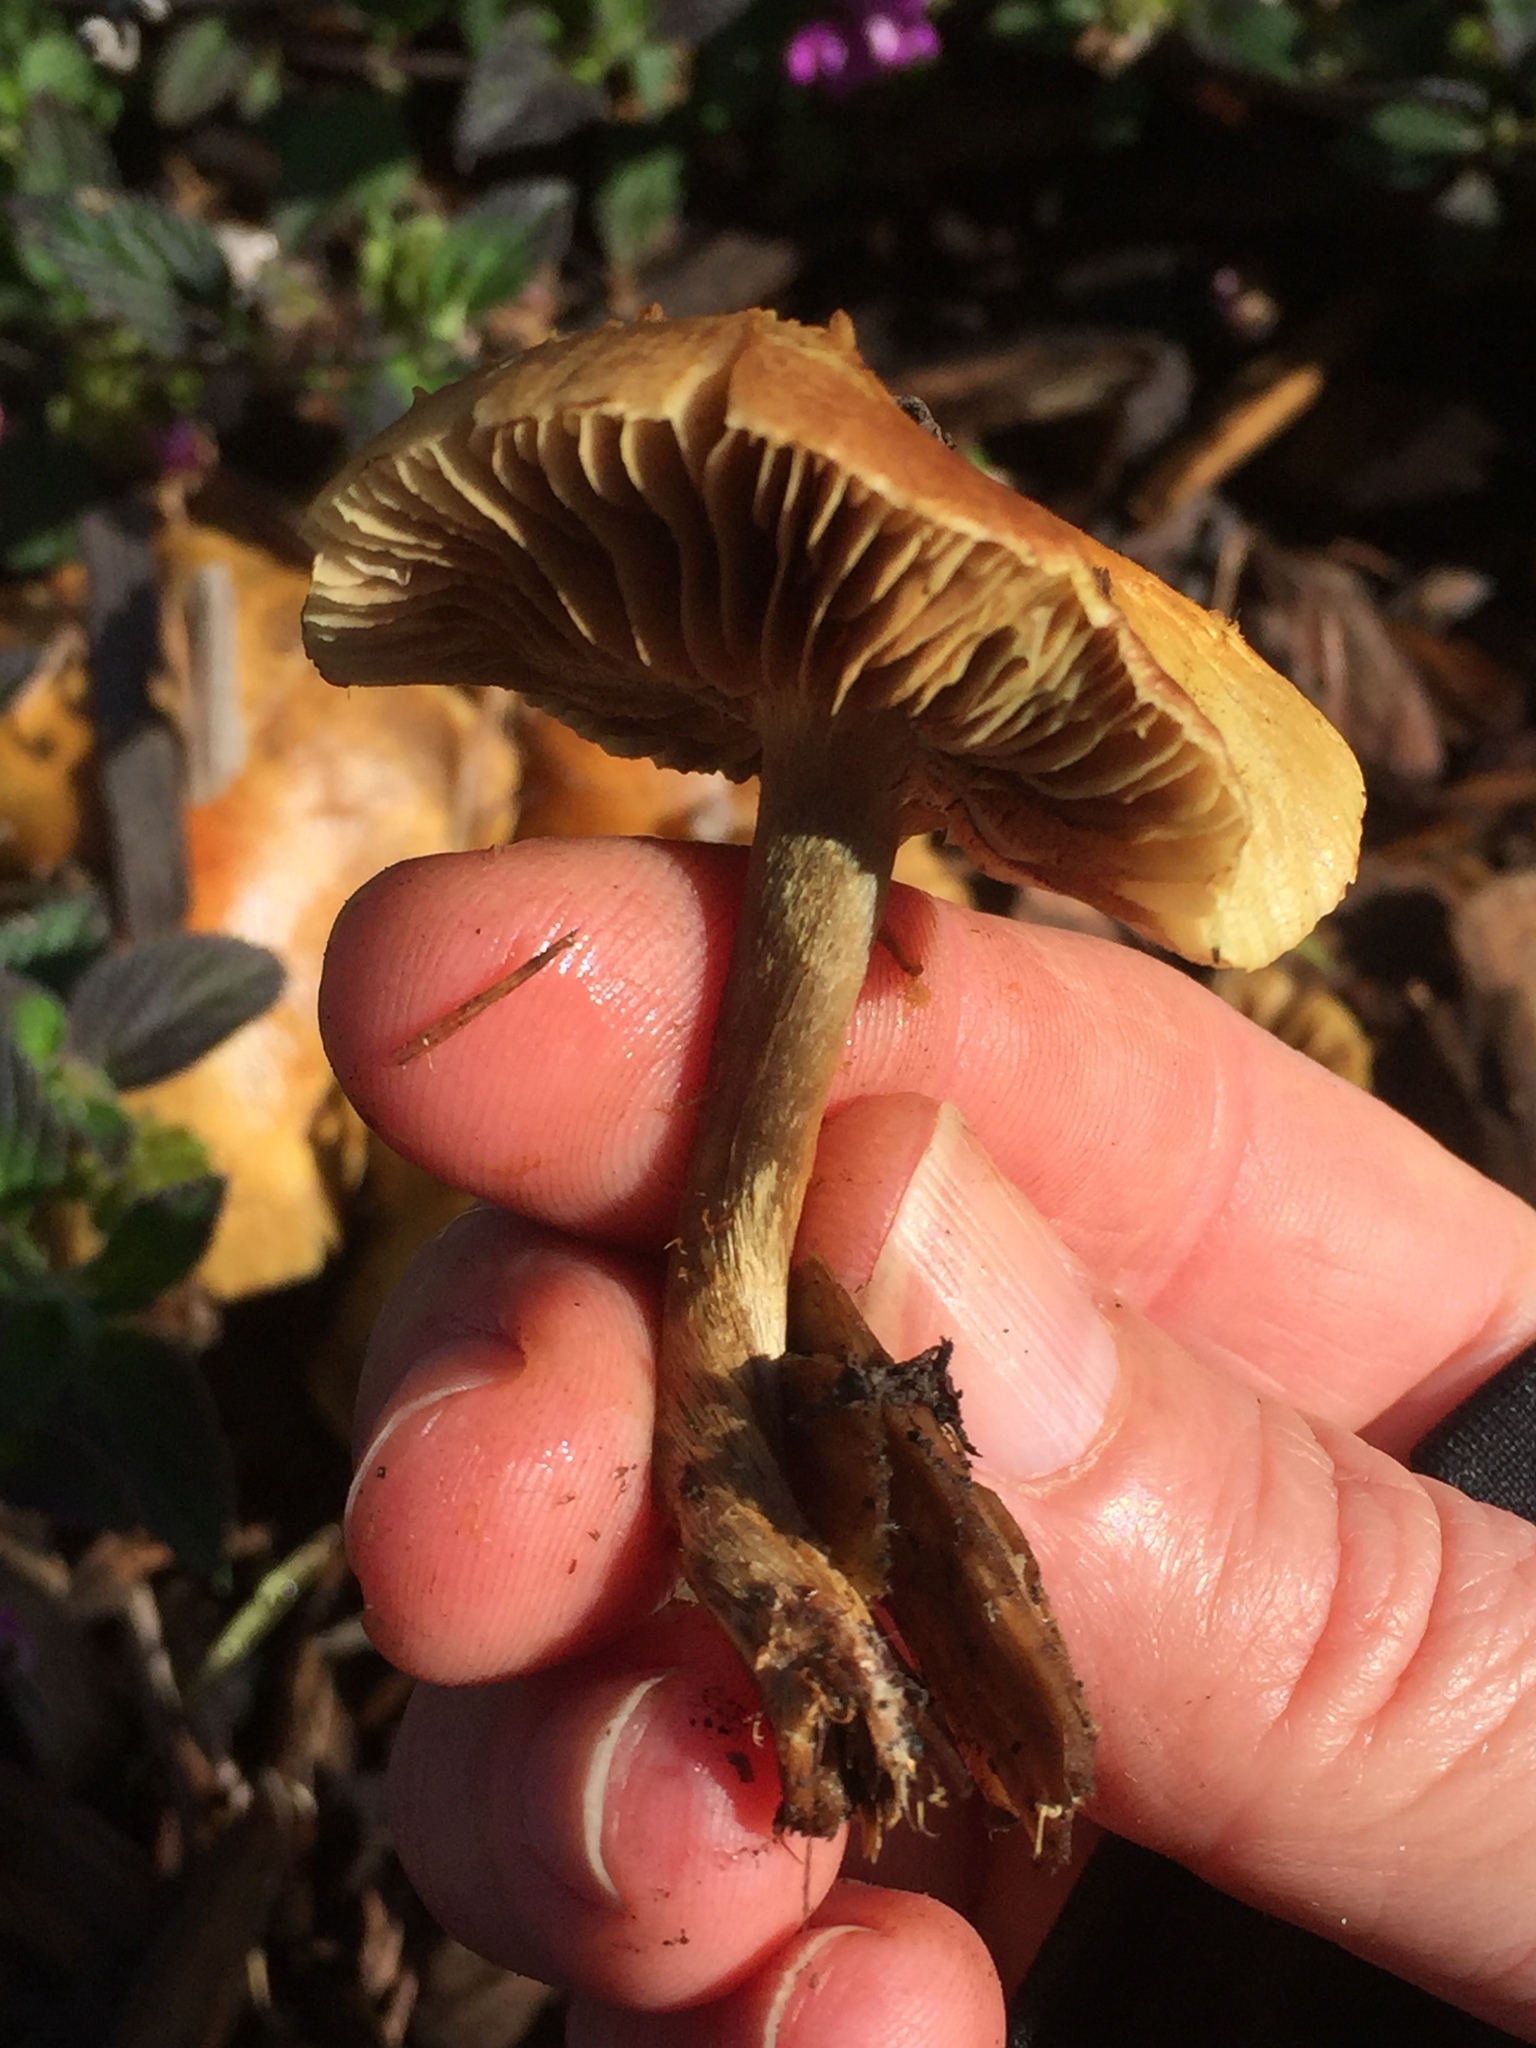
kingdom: Fungi
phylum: Basidiomycota
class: Agaricomycetes
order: Agaricales
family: Strophariaceae
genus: Pholiota
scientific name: Pholiota spumosa
